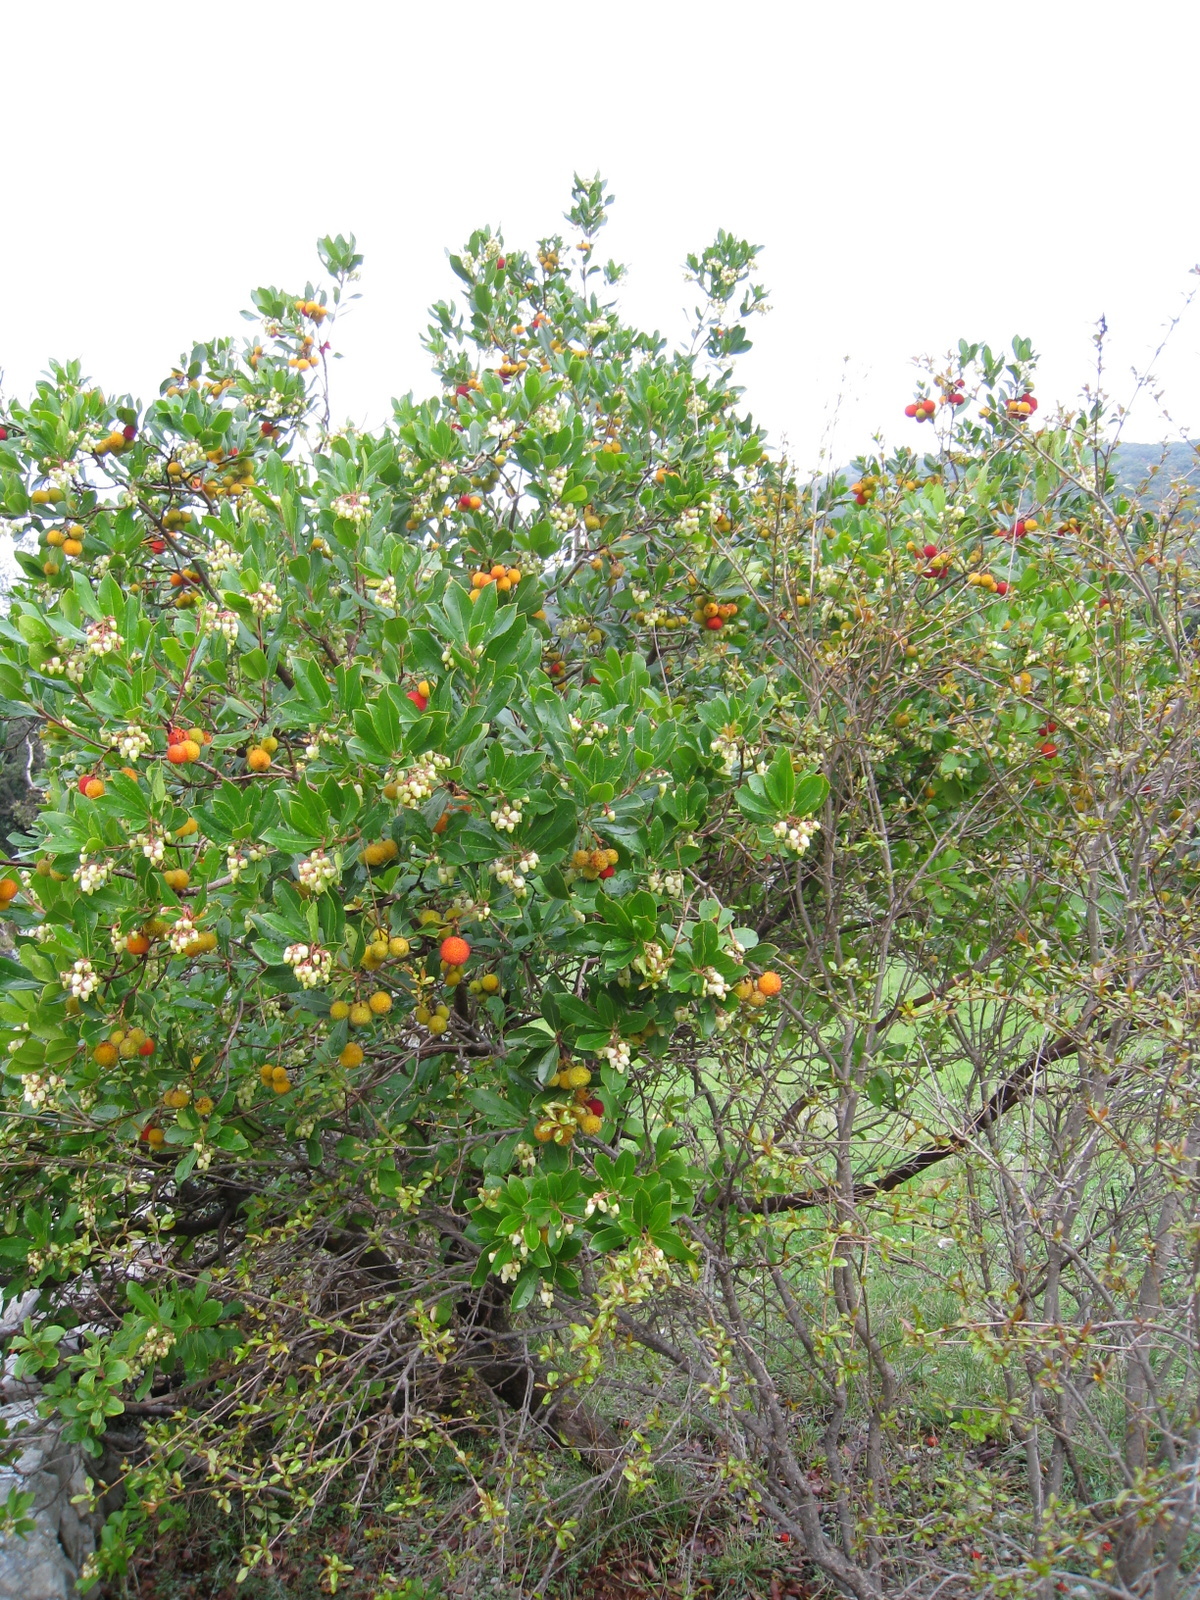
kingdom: Plantae
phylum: Tracheophyta
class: Magnoliopsida
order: Ericales
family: Ericaceae
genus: Arbutus
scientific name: Arbutus unedo
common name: Strawberry-tree
